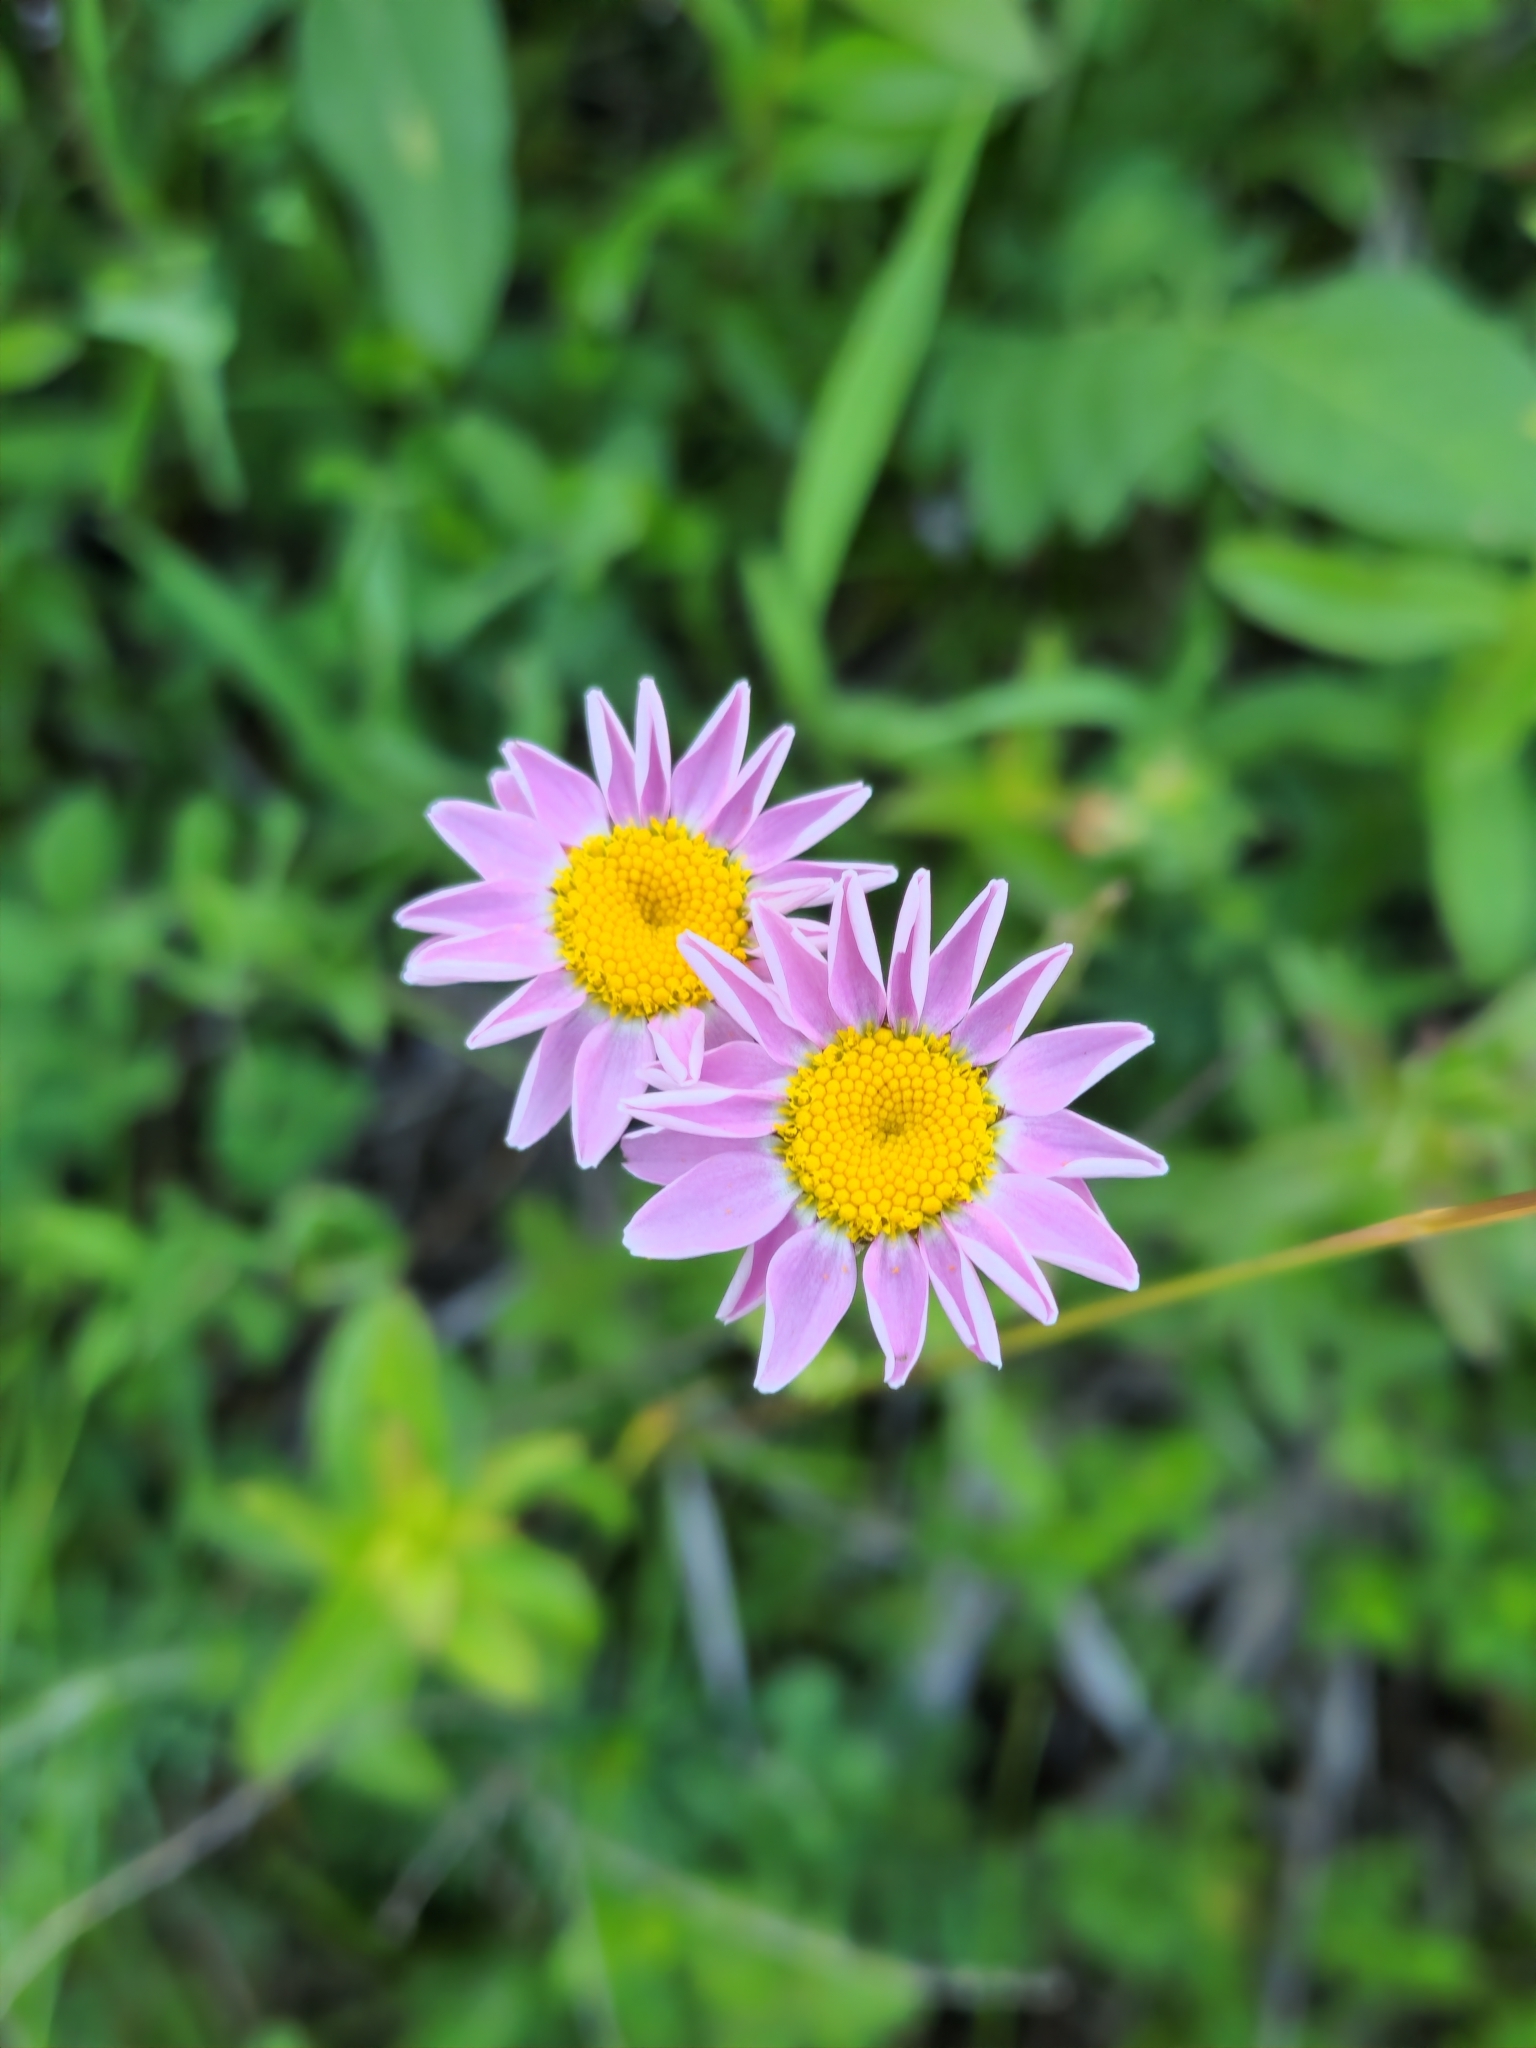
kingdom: Plantae
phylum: Tracheophyta
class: Magnoliopsida
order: Asterales
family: Asteraceae
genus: Tanacetum
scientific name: Tanacetum coccineum
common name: Pyrethum daisy
